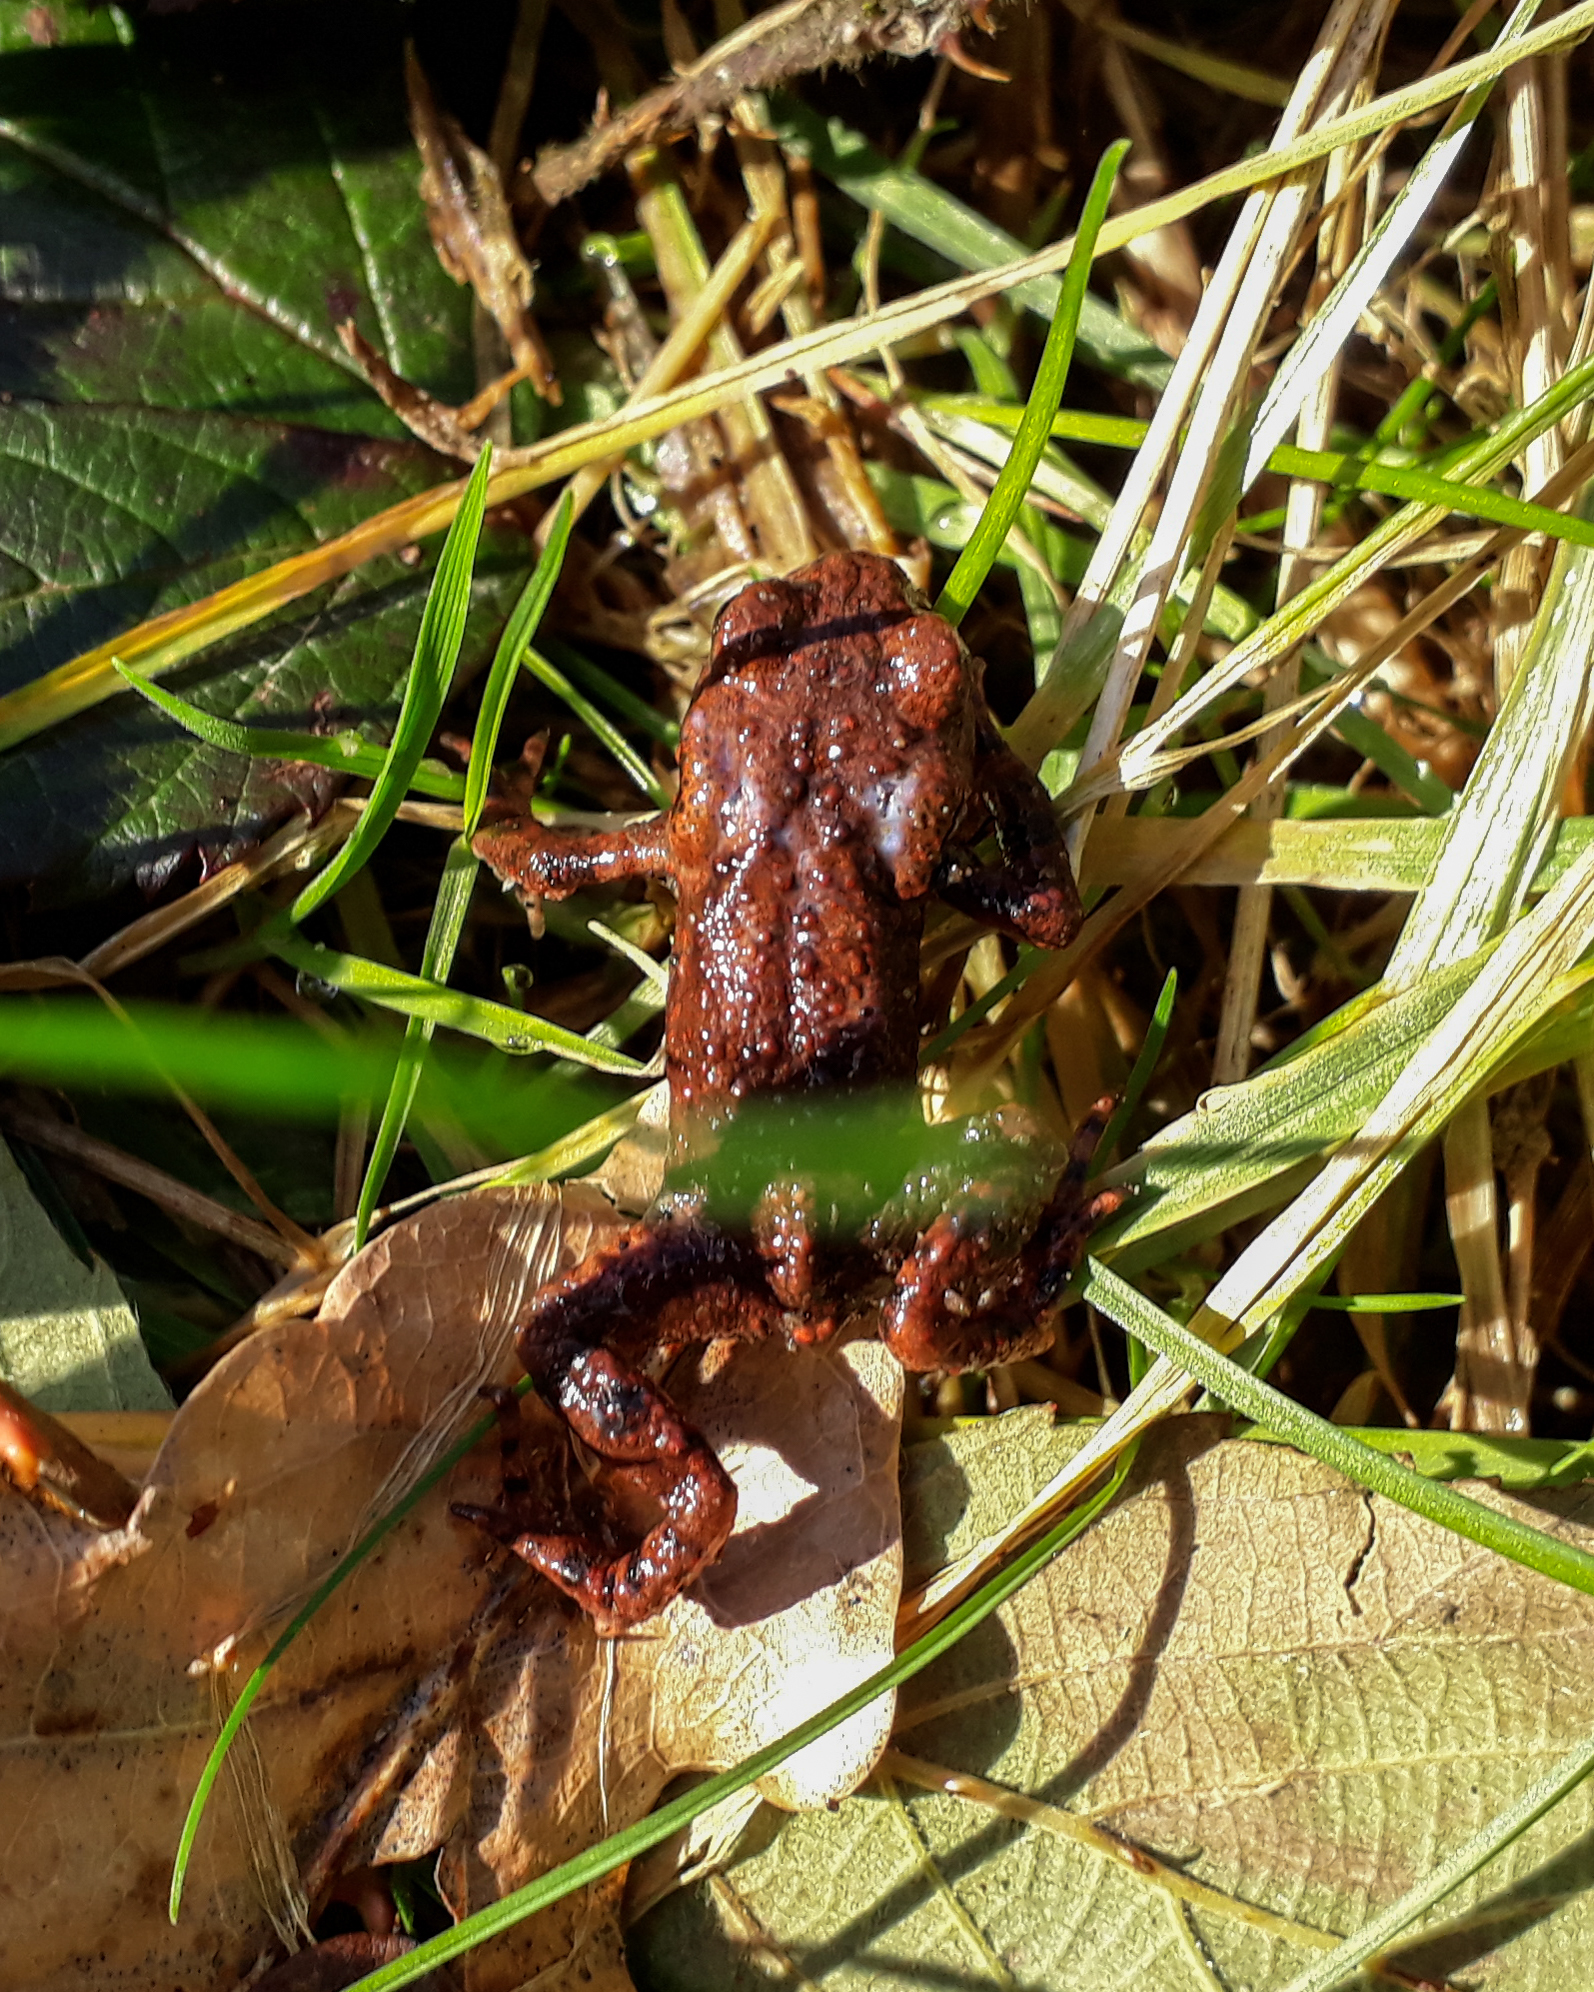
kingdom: Animalia
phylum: Chordata
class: Amphibia
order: Anura
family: Bufonidae
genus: Bufo
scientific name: Bufo bufo
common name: Common toad
